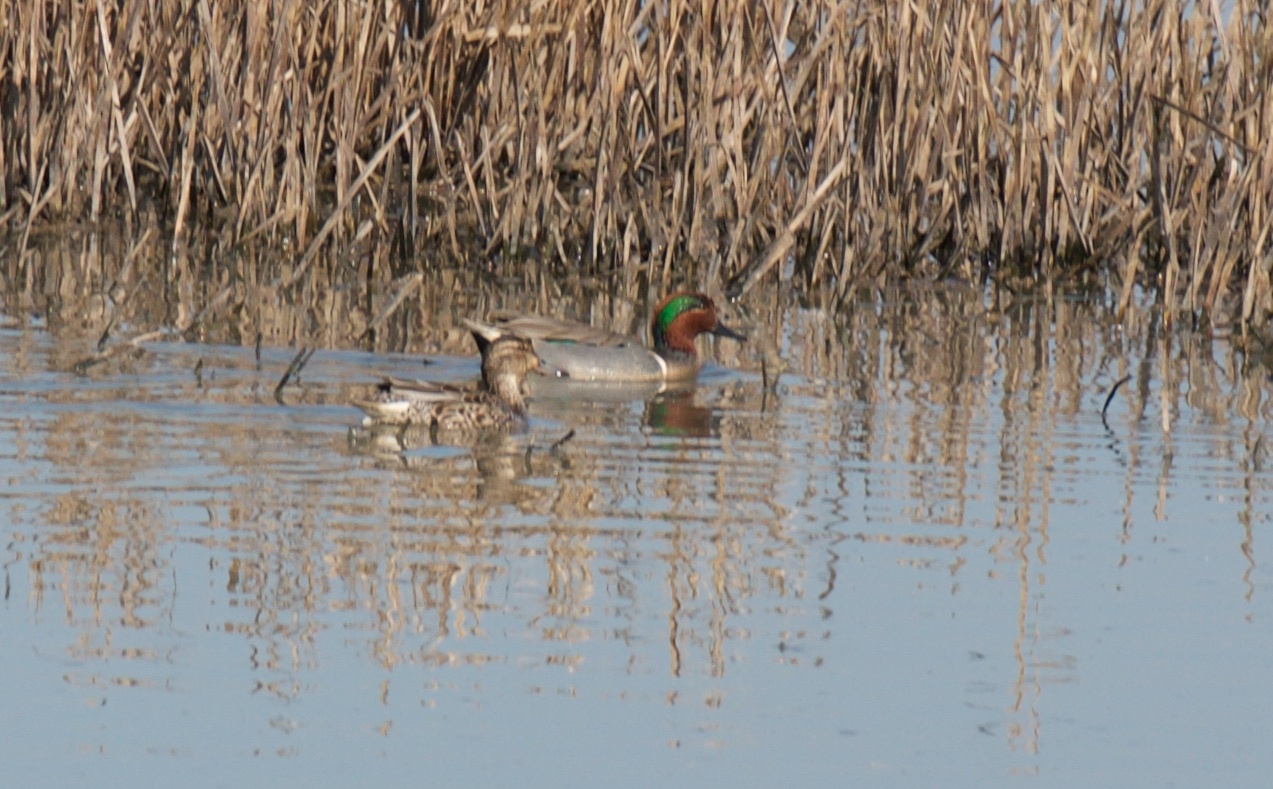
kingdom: Animalia
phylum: Chordata
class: Aves
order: Anseriformes
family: Anatidae
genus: Anas
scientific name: Anas crecca
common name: Eurasian teal
